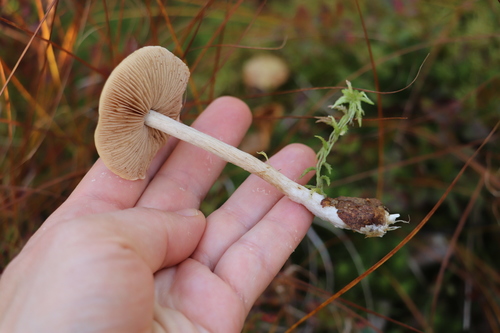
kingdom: Fungi
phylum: Basidiomycota
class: Agaricomycetes
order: Agaricales
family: Hymenogastraceae
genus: Hebeloma
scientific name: Hebeloma incarnatulum
